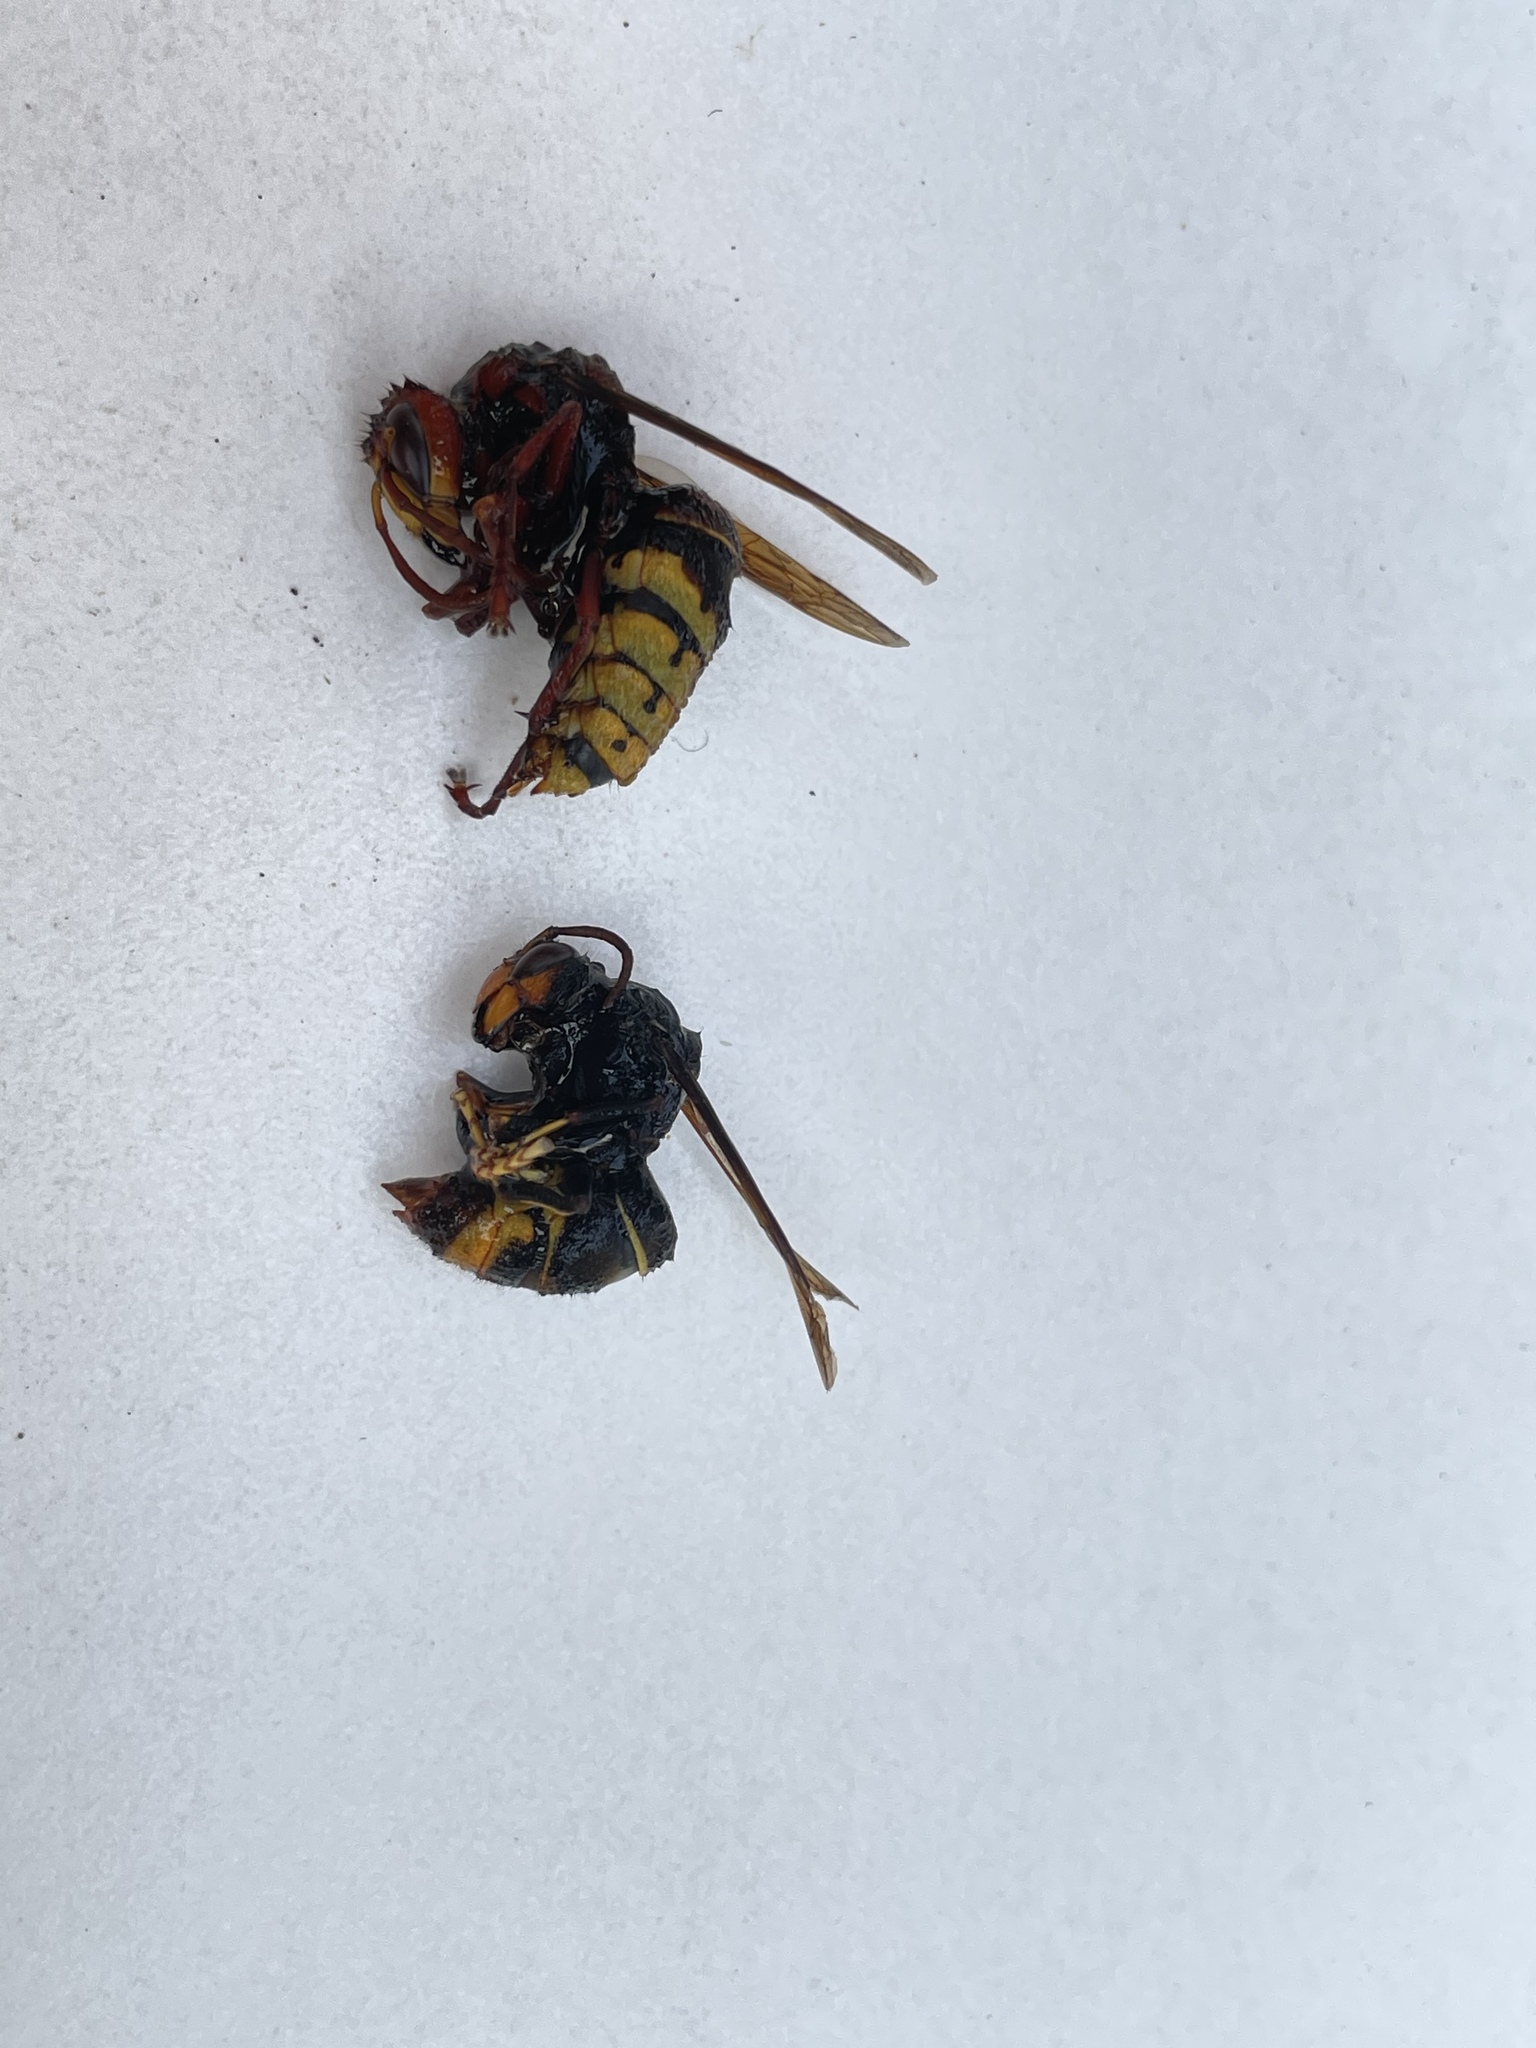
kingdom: Animalia
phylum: Arthropoda
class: Insecta
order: Hymenoptera
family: Vespidae
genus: Vespa
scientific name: Vespa velutina
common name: Asian hornet
